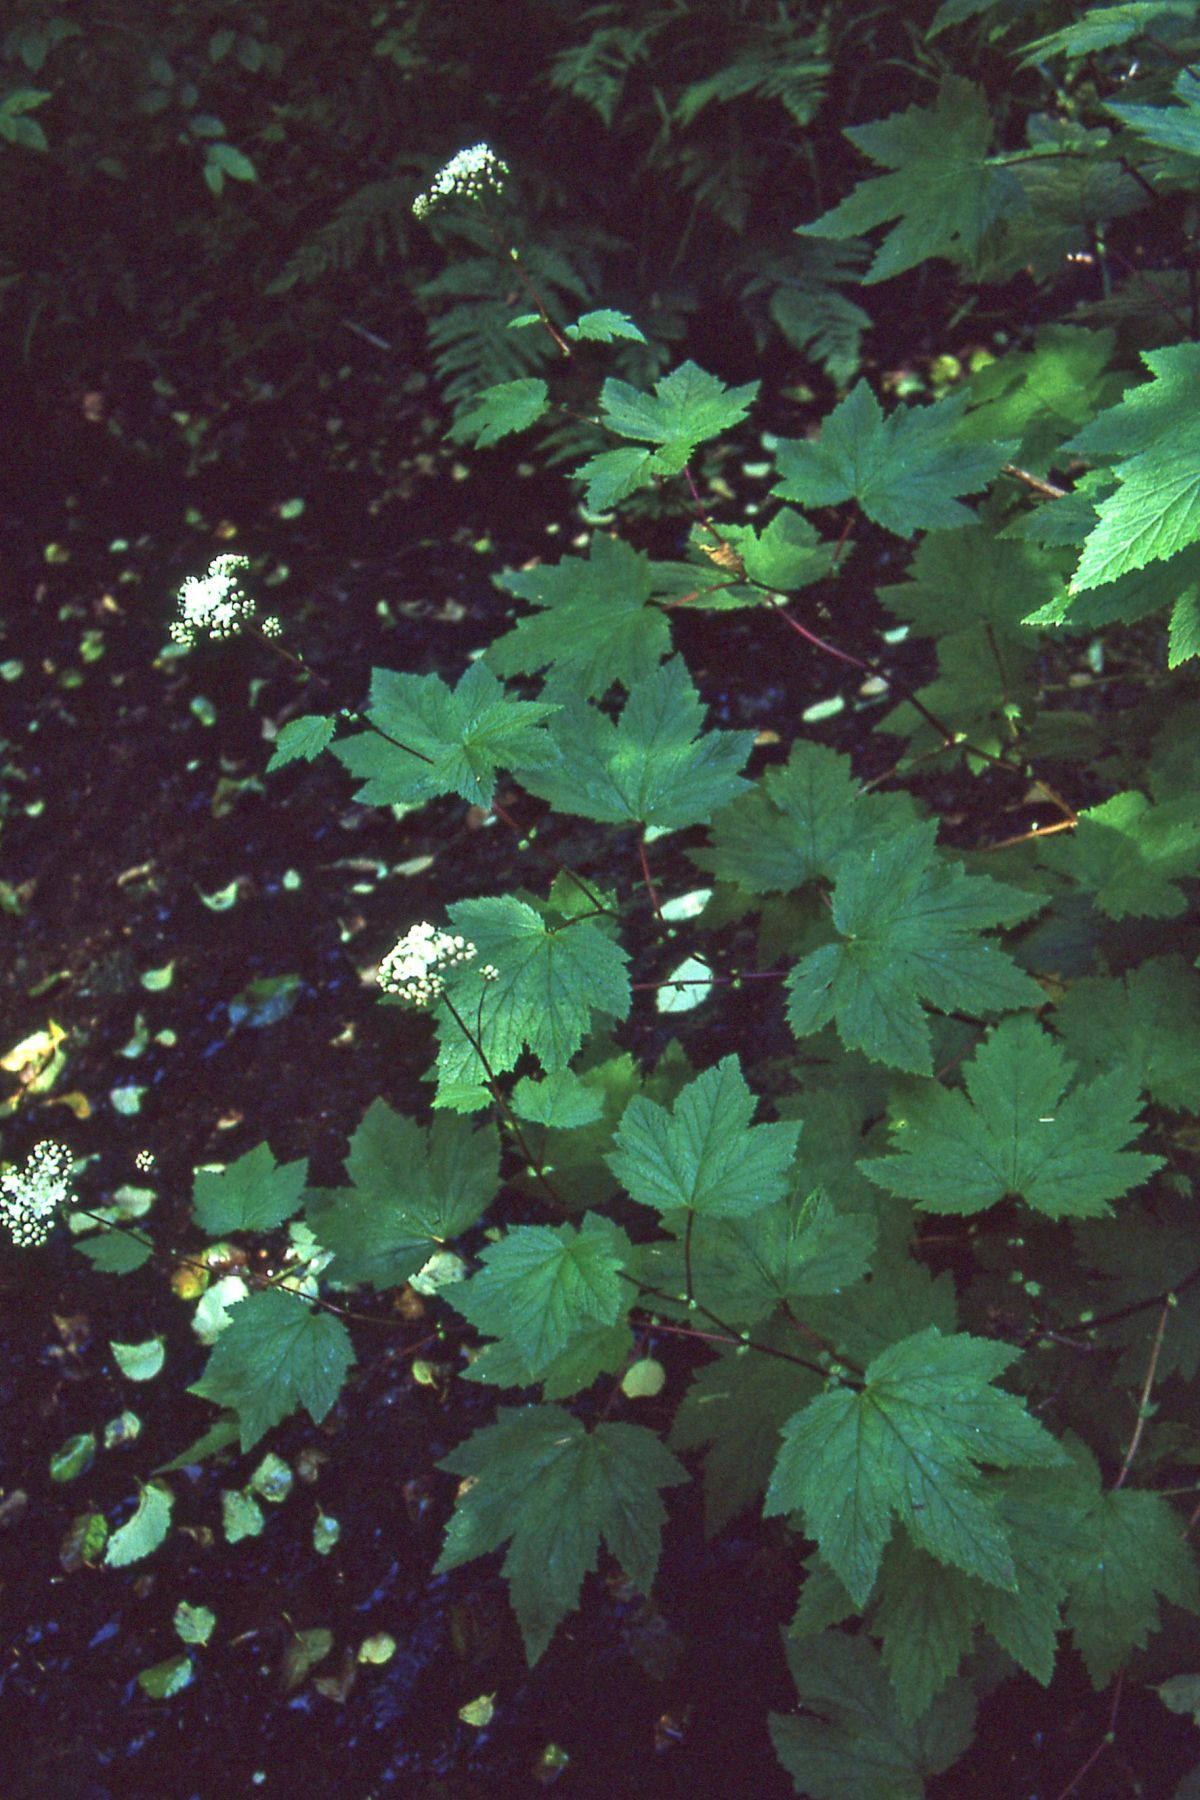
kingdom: Plantae
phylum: Tracheophyta
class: Magnoliopsida
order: Rosales
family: Rosaceae
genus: Filipendula
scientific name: Filipendula occidentalis
